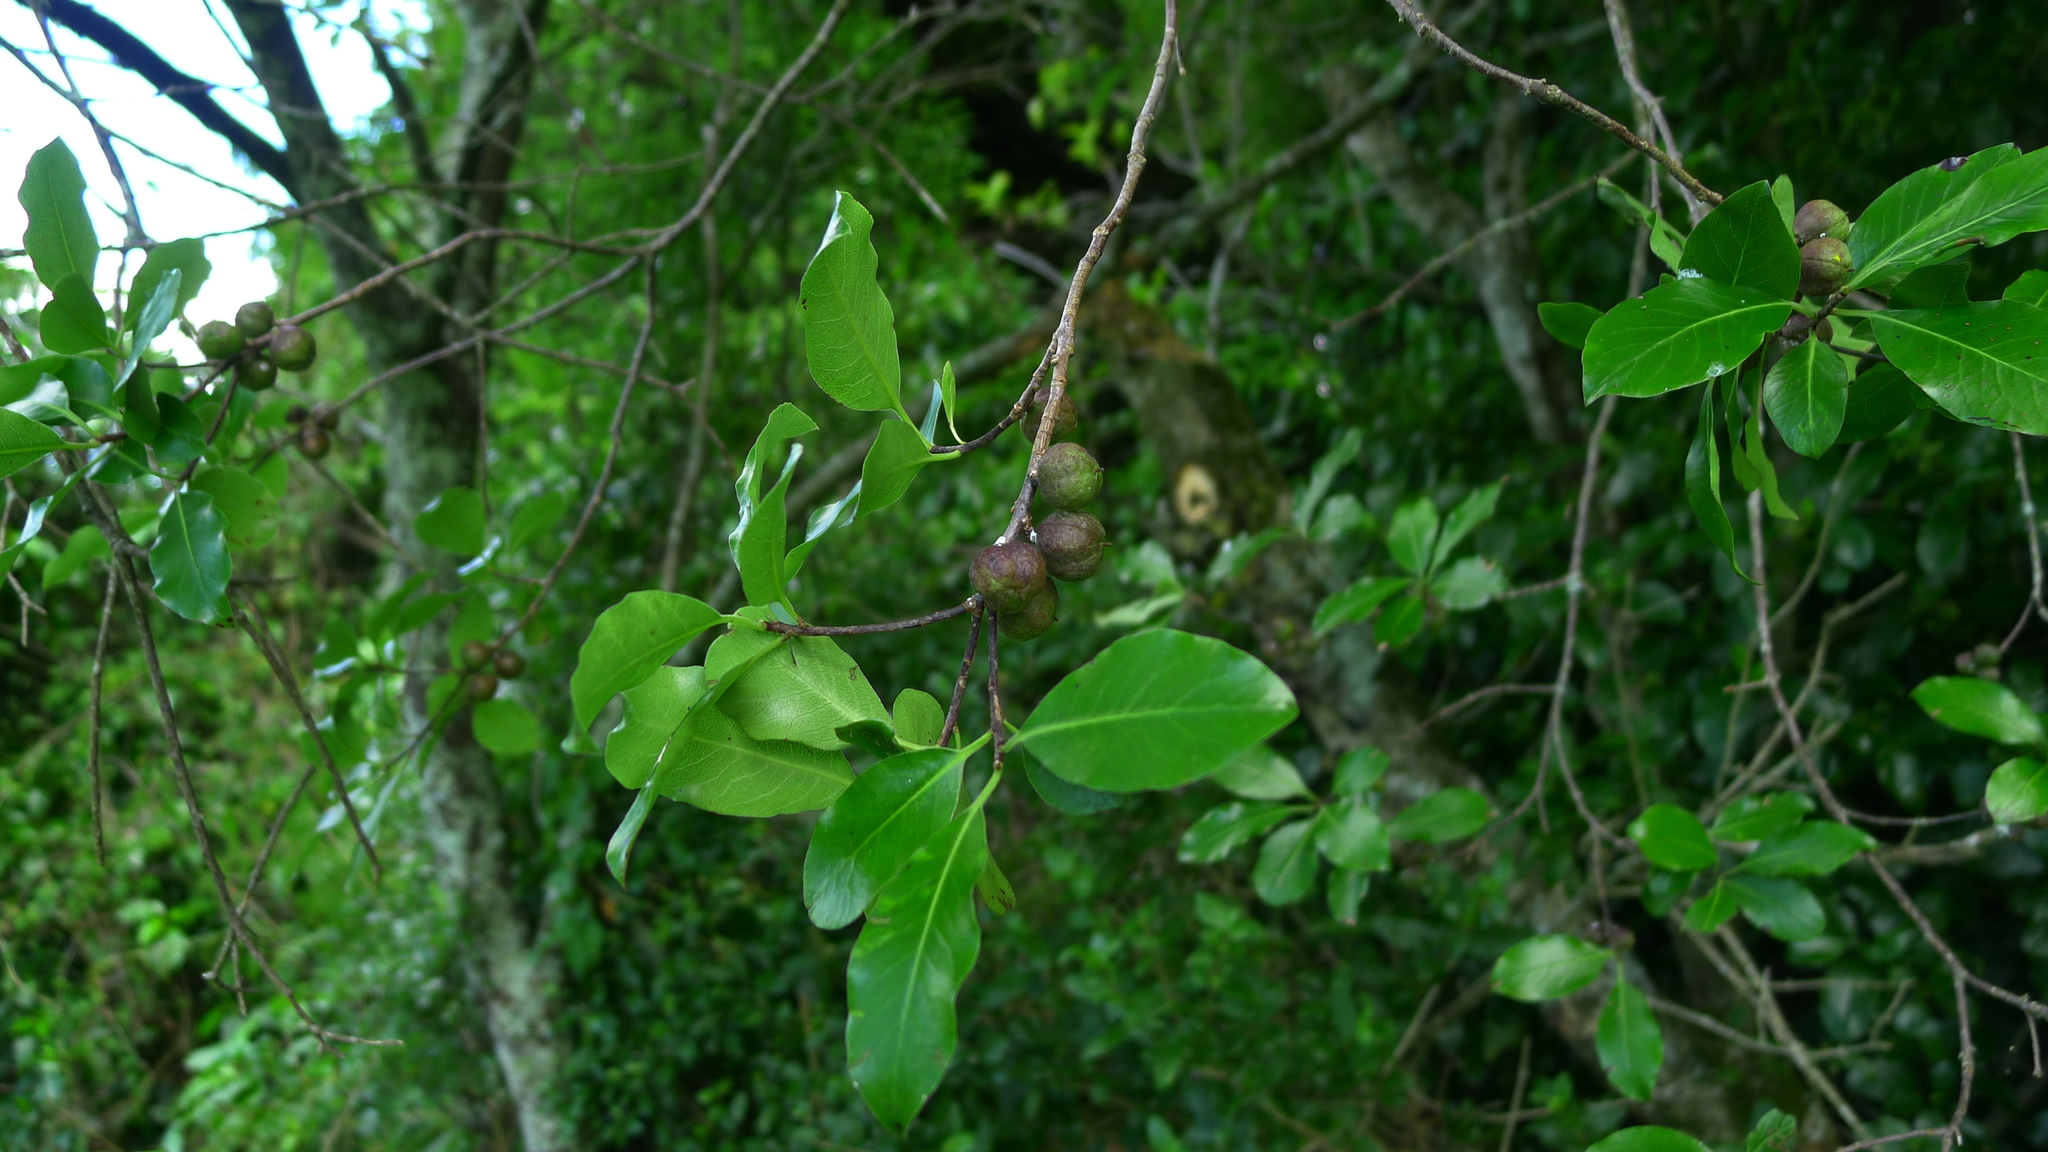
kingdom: Plantae
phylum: Tracheophyta
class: Magnoliopsida
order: Apiales
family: Pittosporaceae
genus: Pittosporum
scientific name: Pittosporum tenuifolium
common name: Kohuhu
